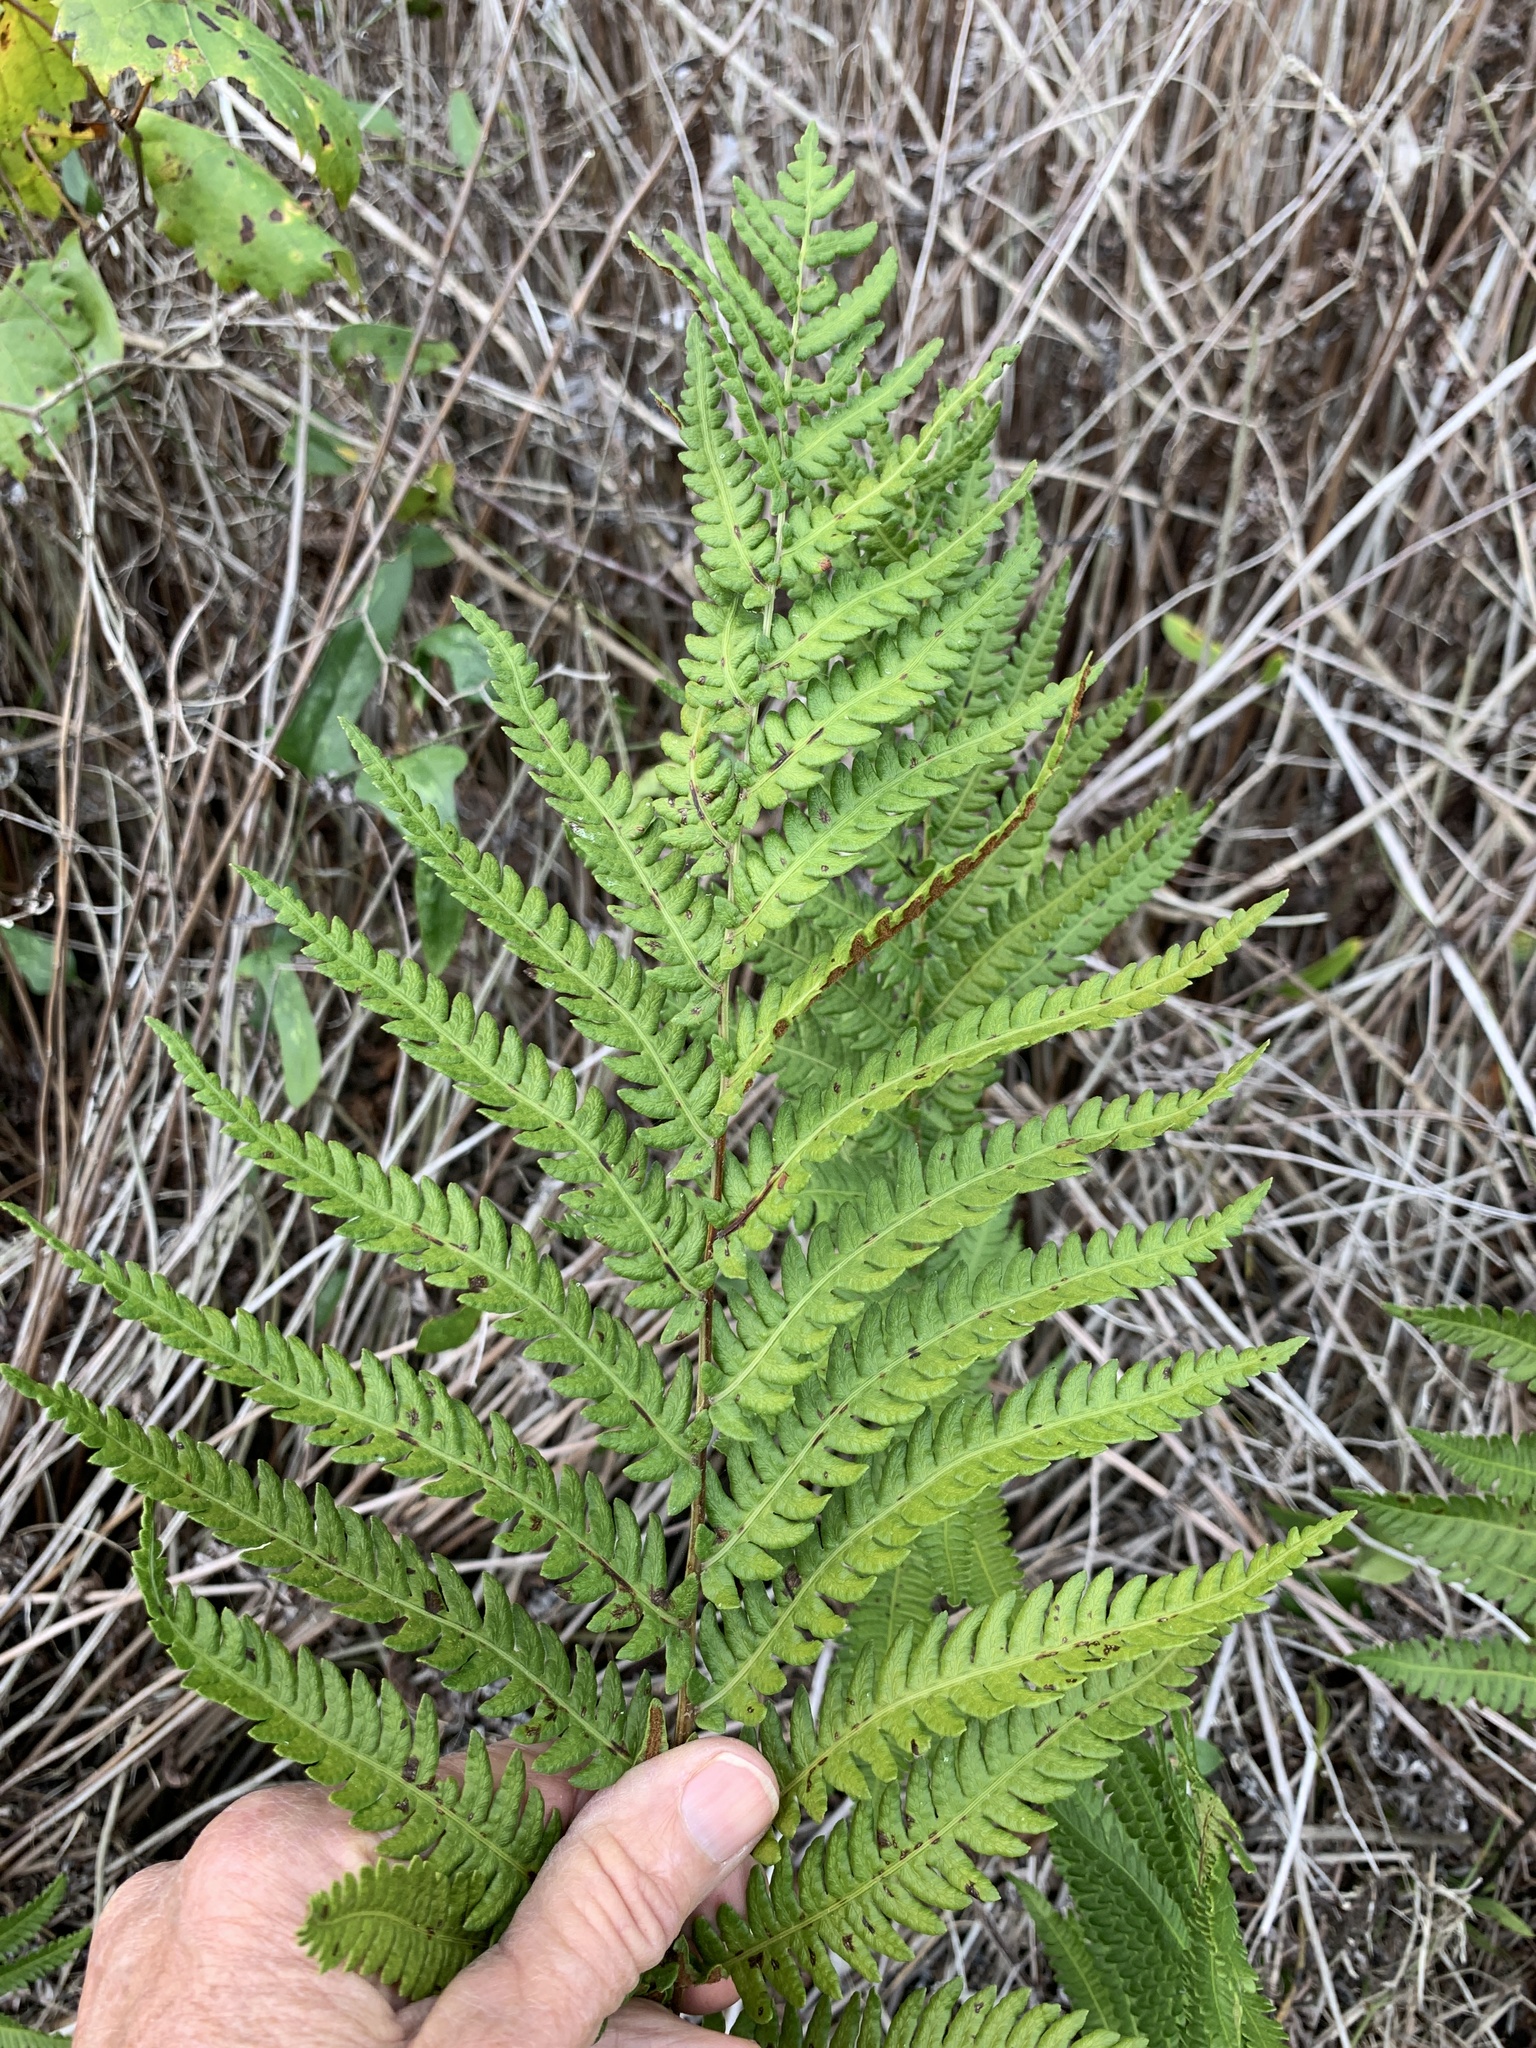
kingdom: Plantae
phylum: Tracheophyta
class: Polypodiopsida
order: Polypodiales
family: Blechnaceae
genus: Anchistea
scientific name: Anchistea virginica
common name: Virginia chain fern
